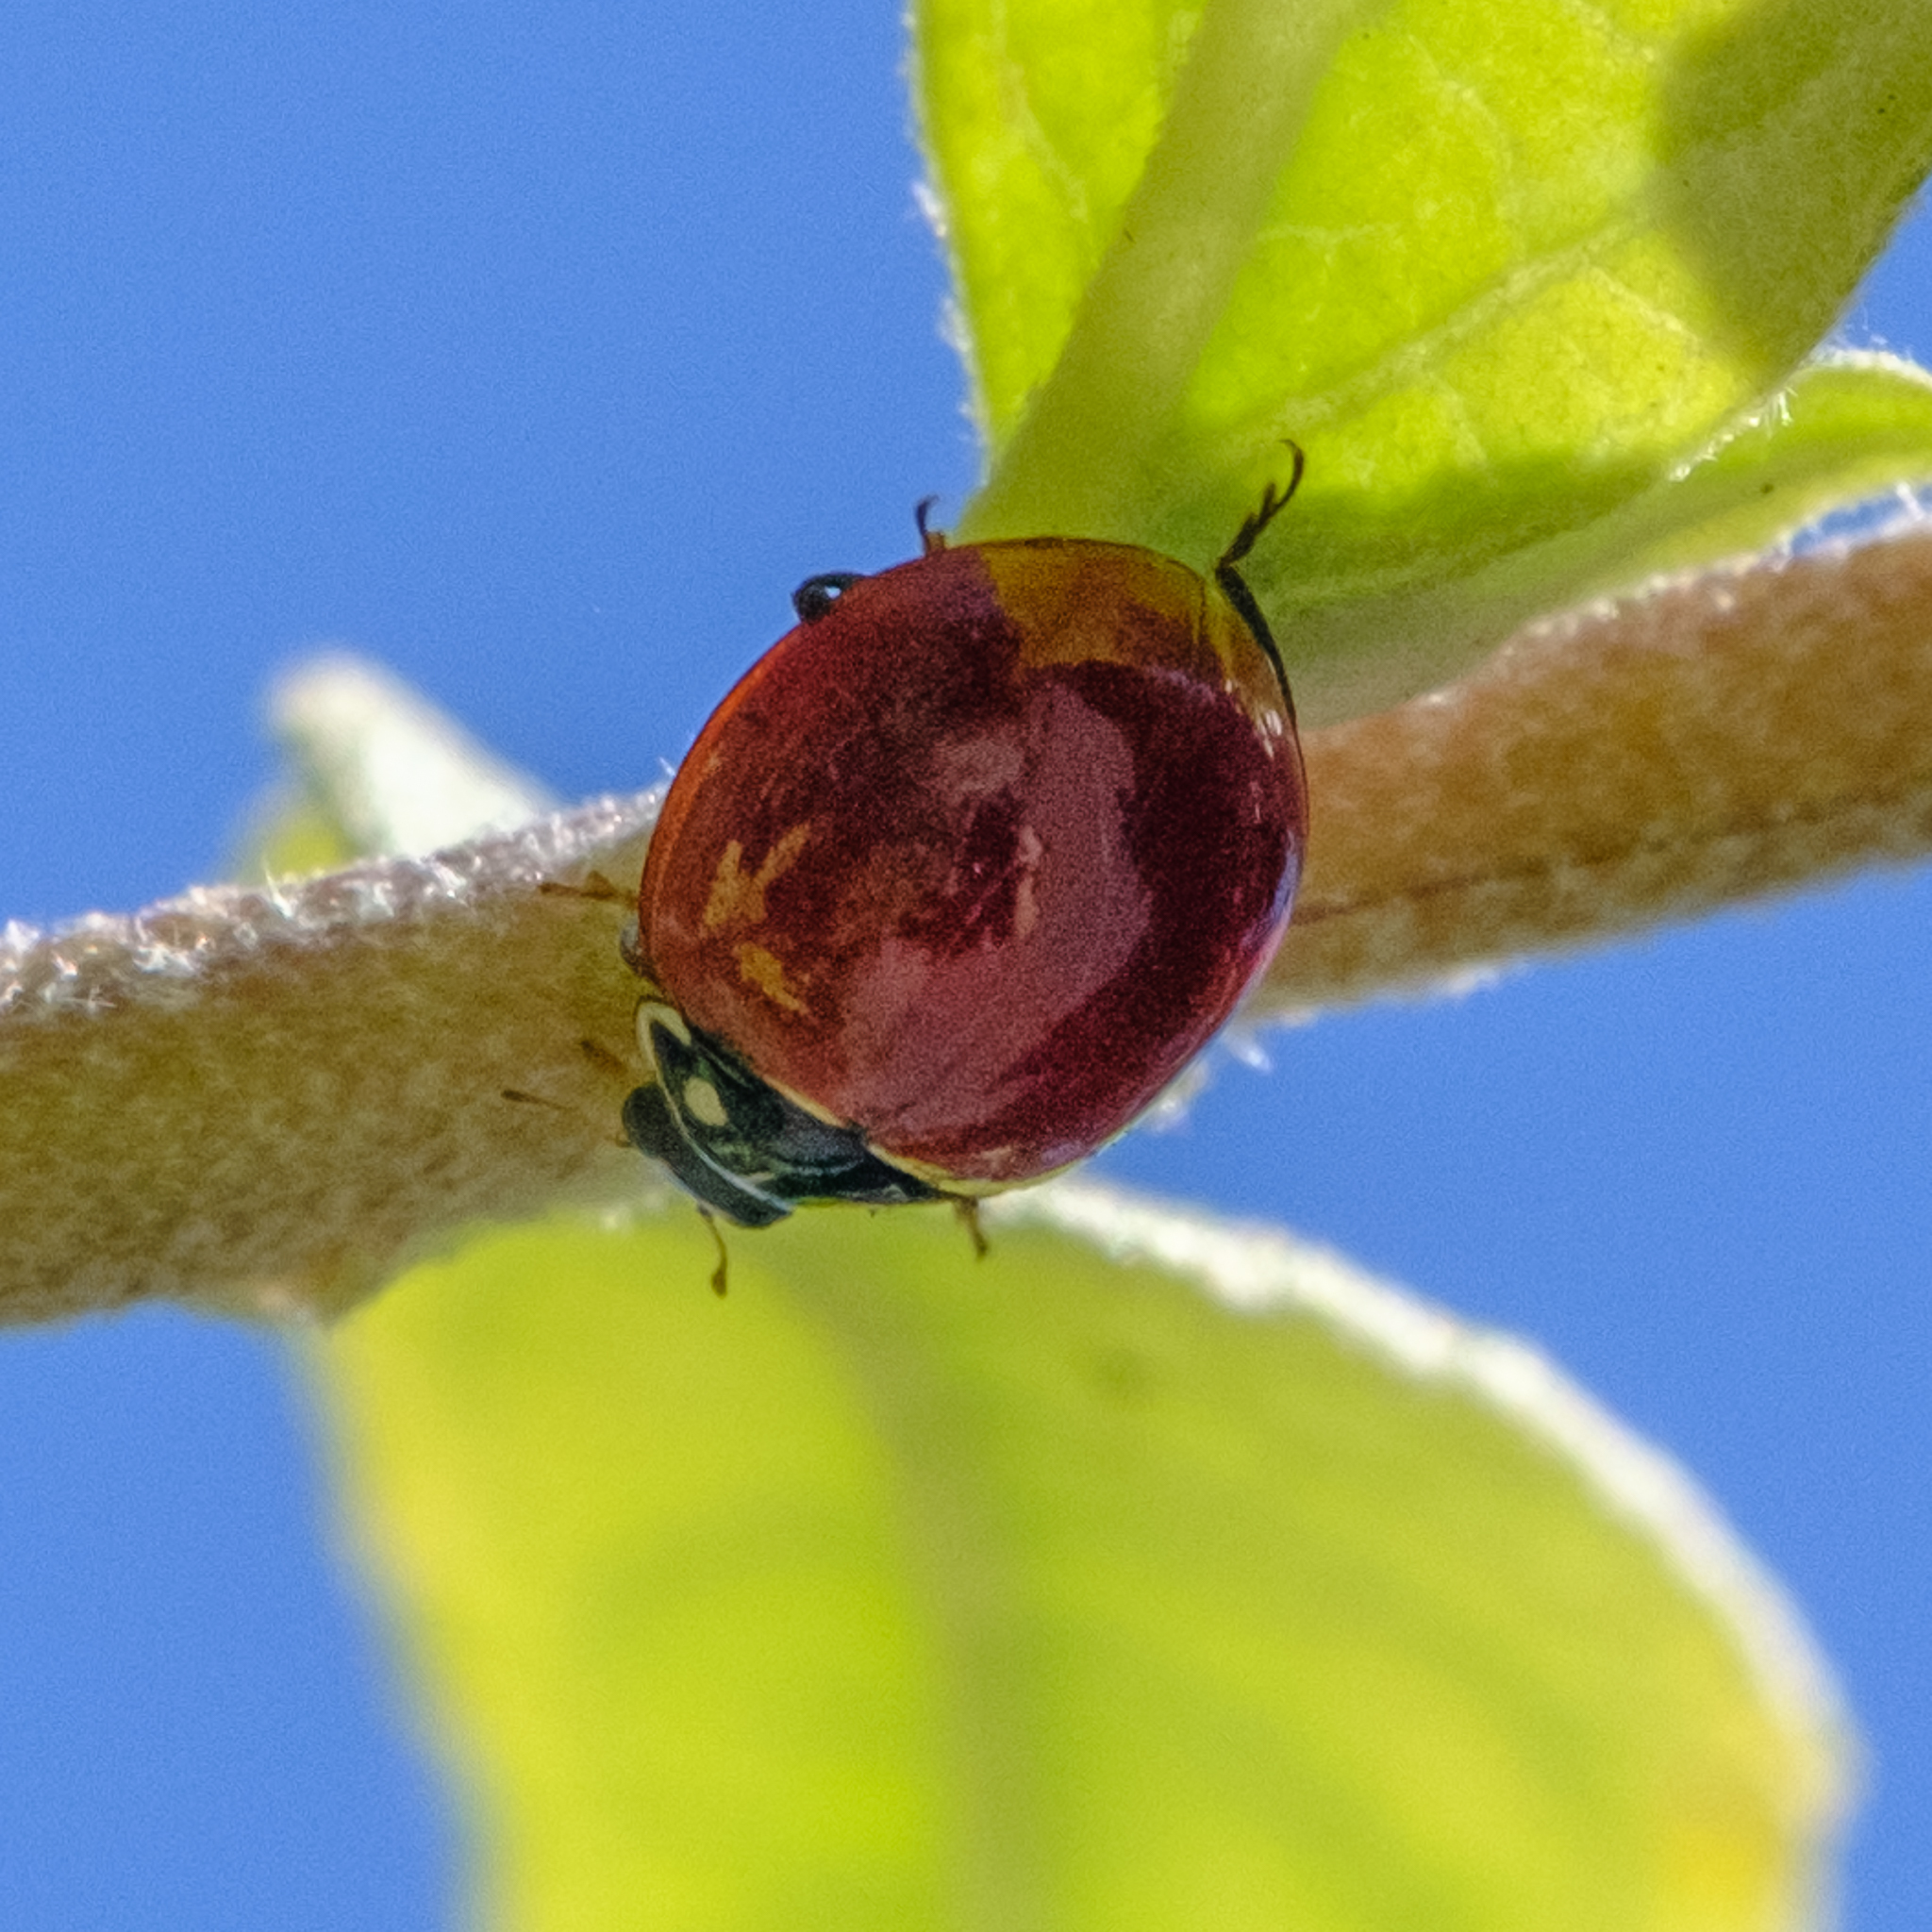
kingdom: Animalia
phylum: Arthropoda
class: Insecta
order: Coleoptera
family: Coccinellidae
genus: Cycloneda
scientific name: Cycloneda sanguinea
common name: Ladybird beetle
